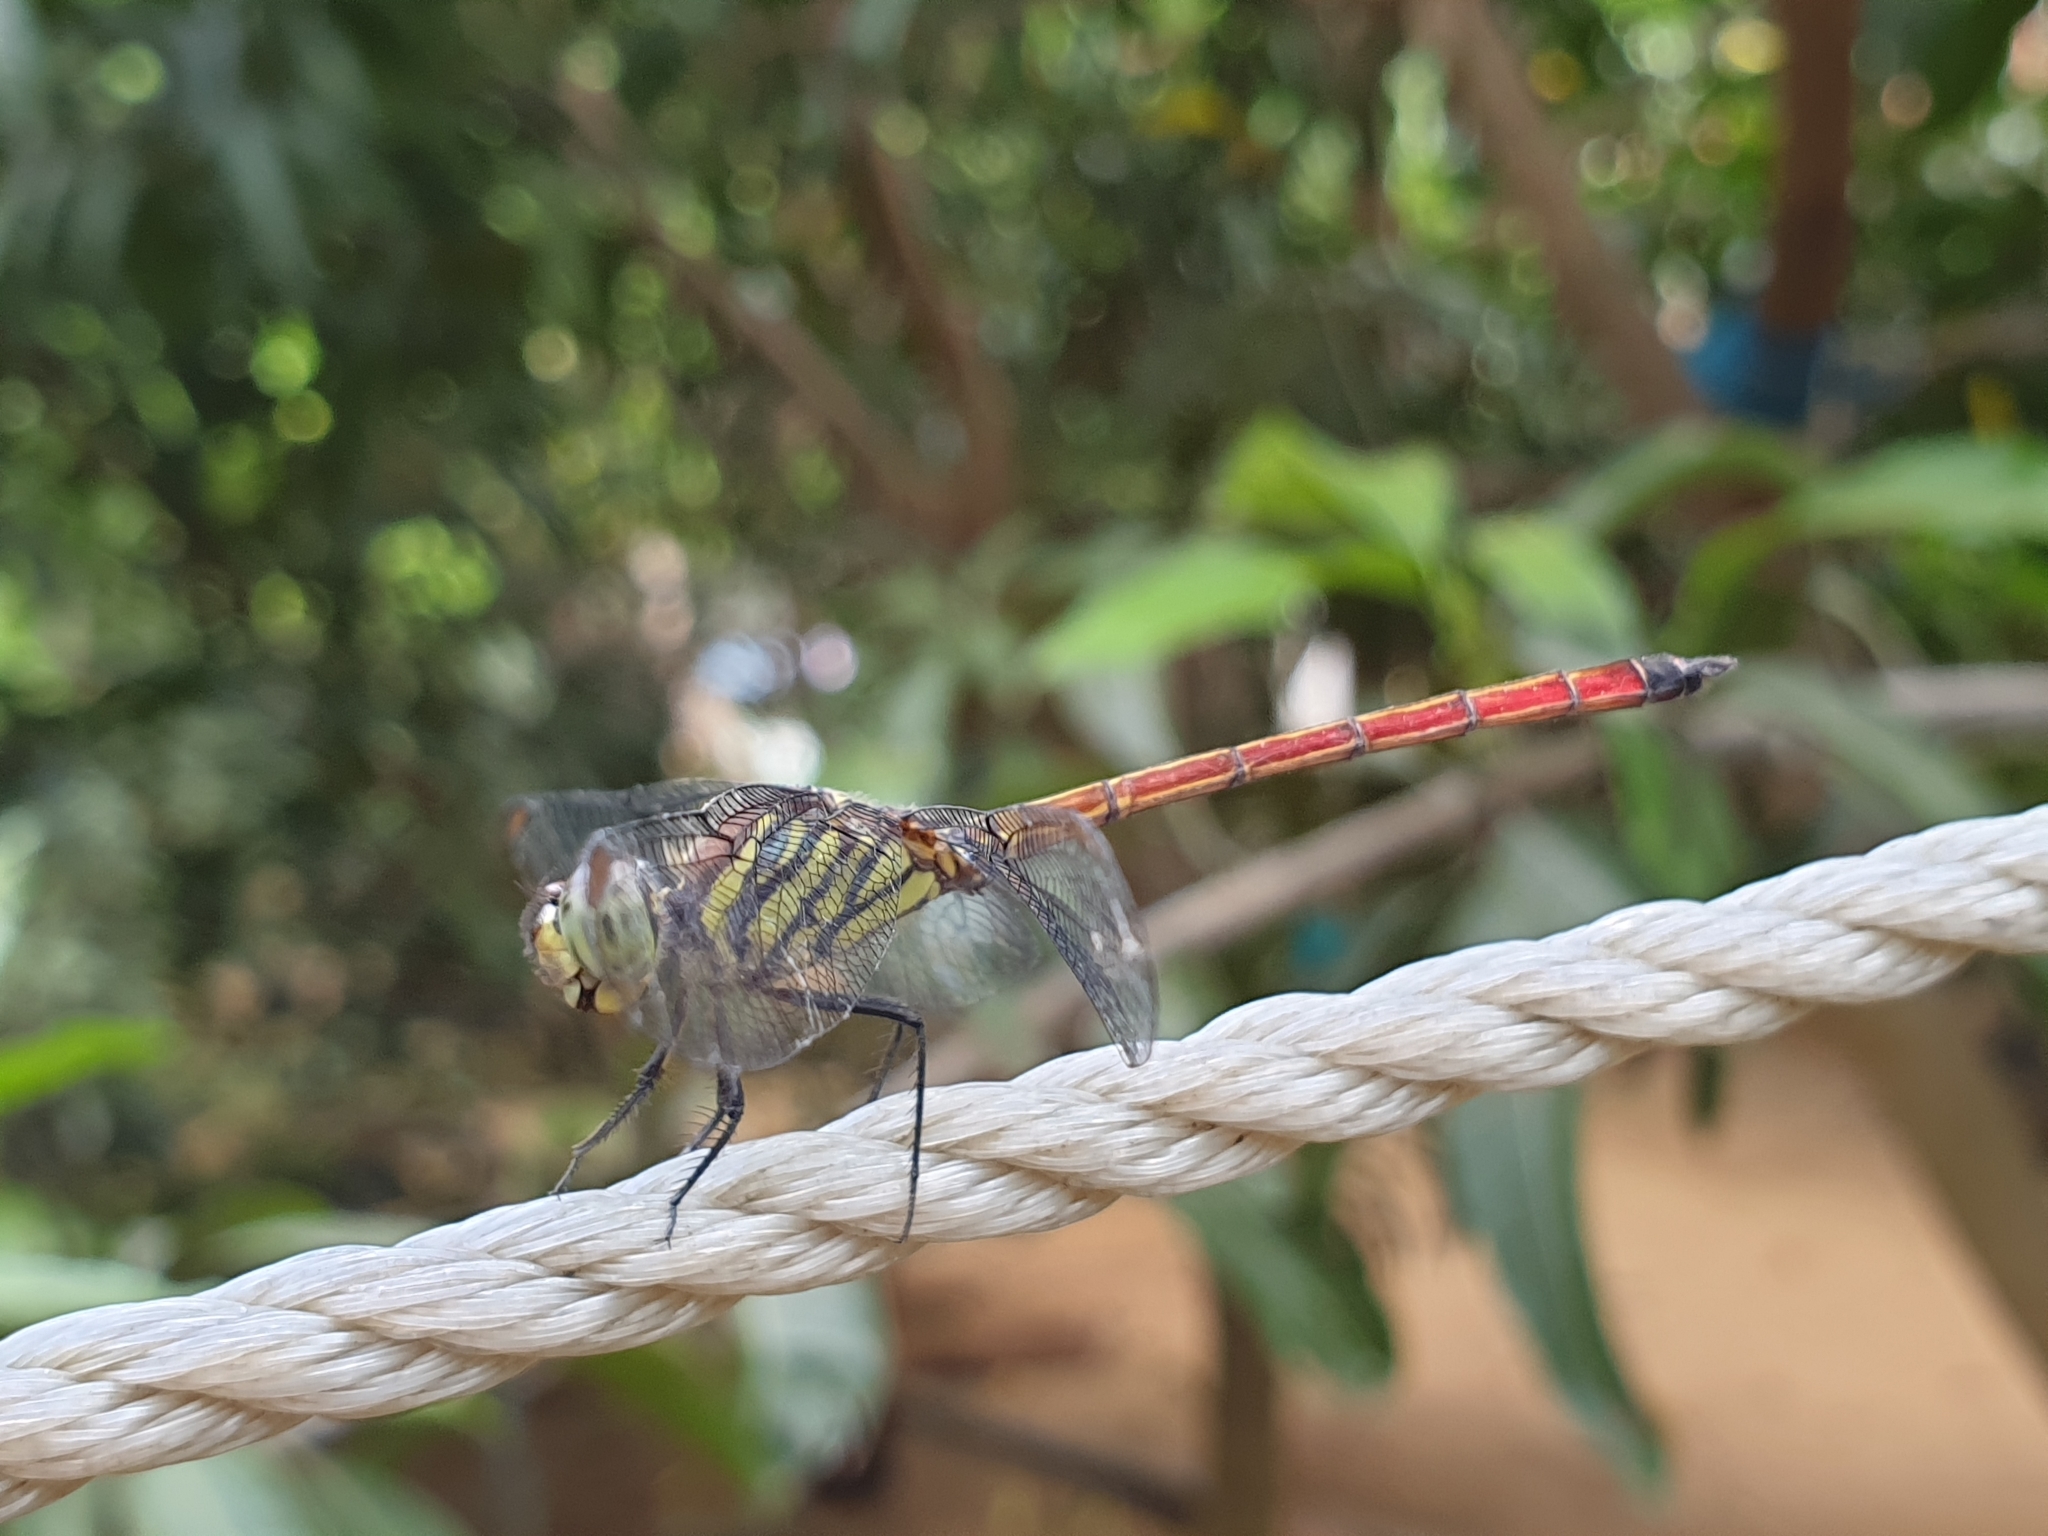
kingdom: Animalia
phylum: Arthropoda
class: Insecta
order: Odonata
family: Libellulidae
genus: Lathrecista
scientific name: Lathrecista asiatica
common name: Scarlet grenadier
